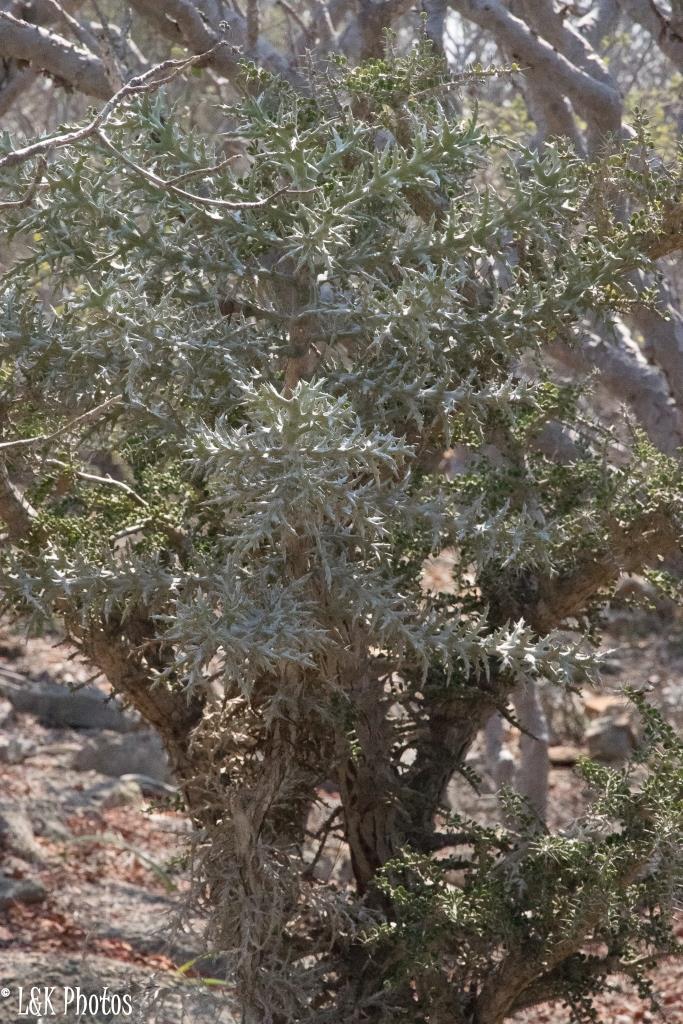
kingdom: Plantae
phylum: Tracheophyta
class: Magnoliopsida
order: Malpighiales
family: Euphorbiaceae
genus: Euphorbia
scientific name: Euphorbia stenoclada
